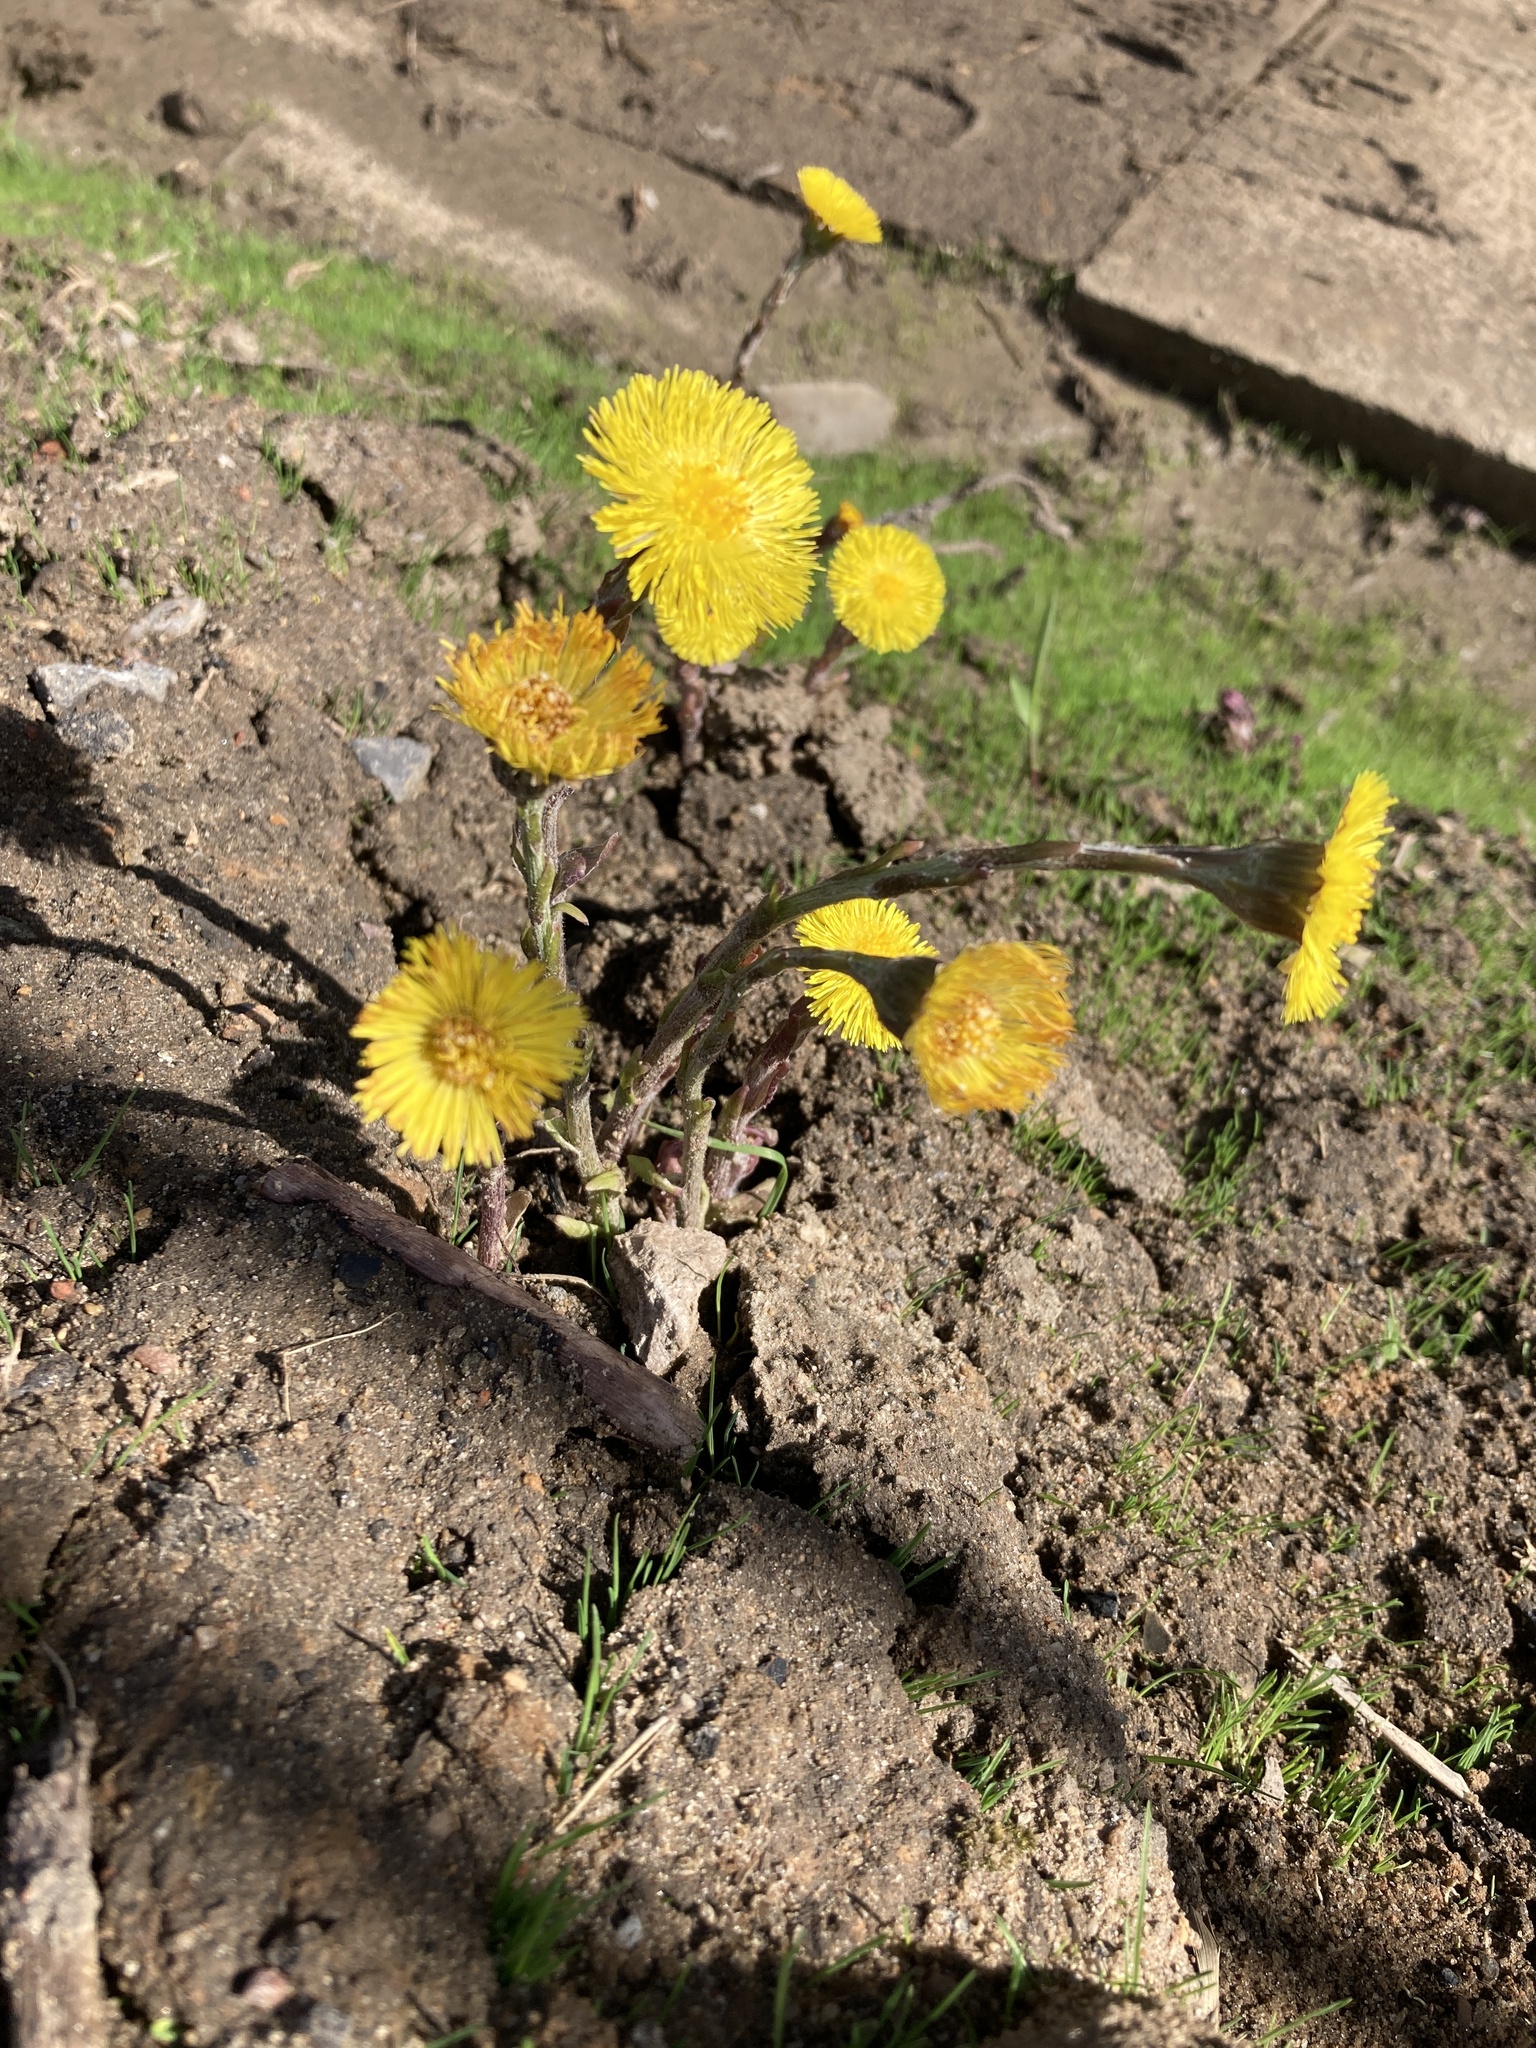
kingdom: Plantae
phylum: Tracheophyta
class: Magnoliopsida
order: Asterales
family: Asteraceae
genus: Tussilago
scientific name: Tussilago farfara
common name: Coltsfoot
